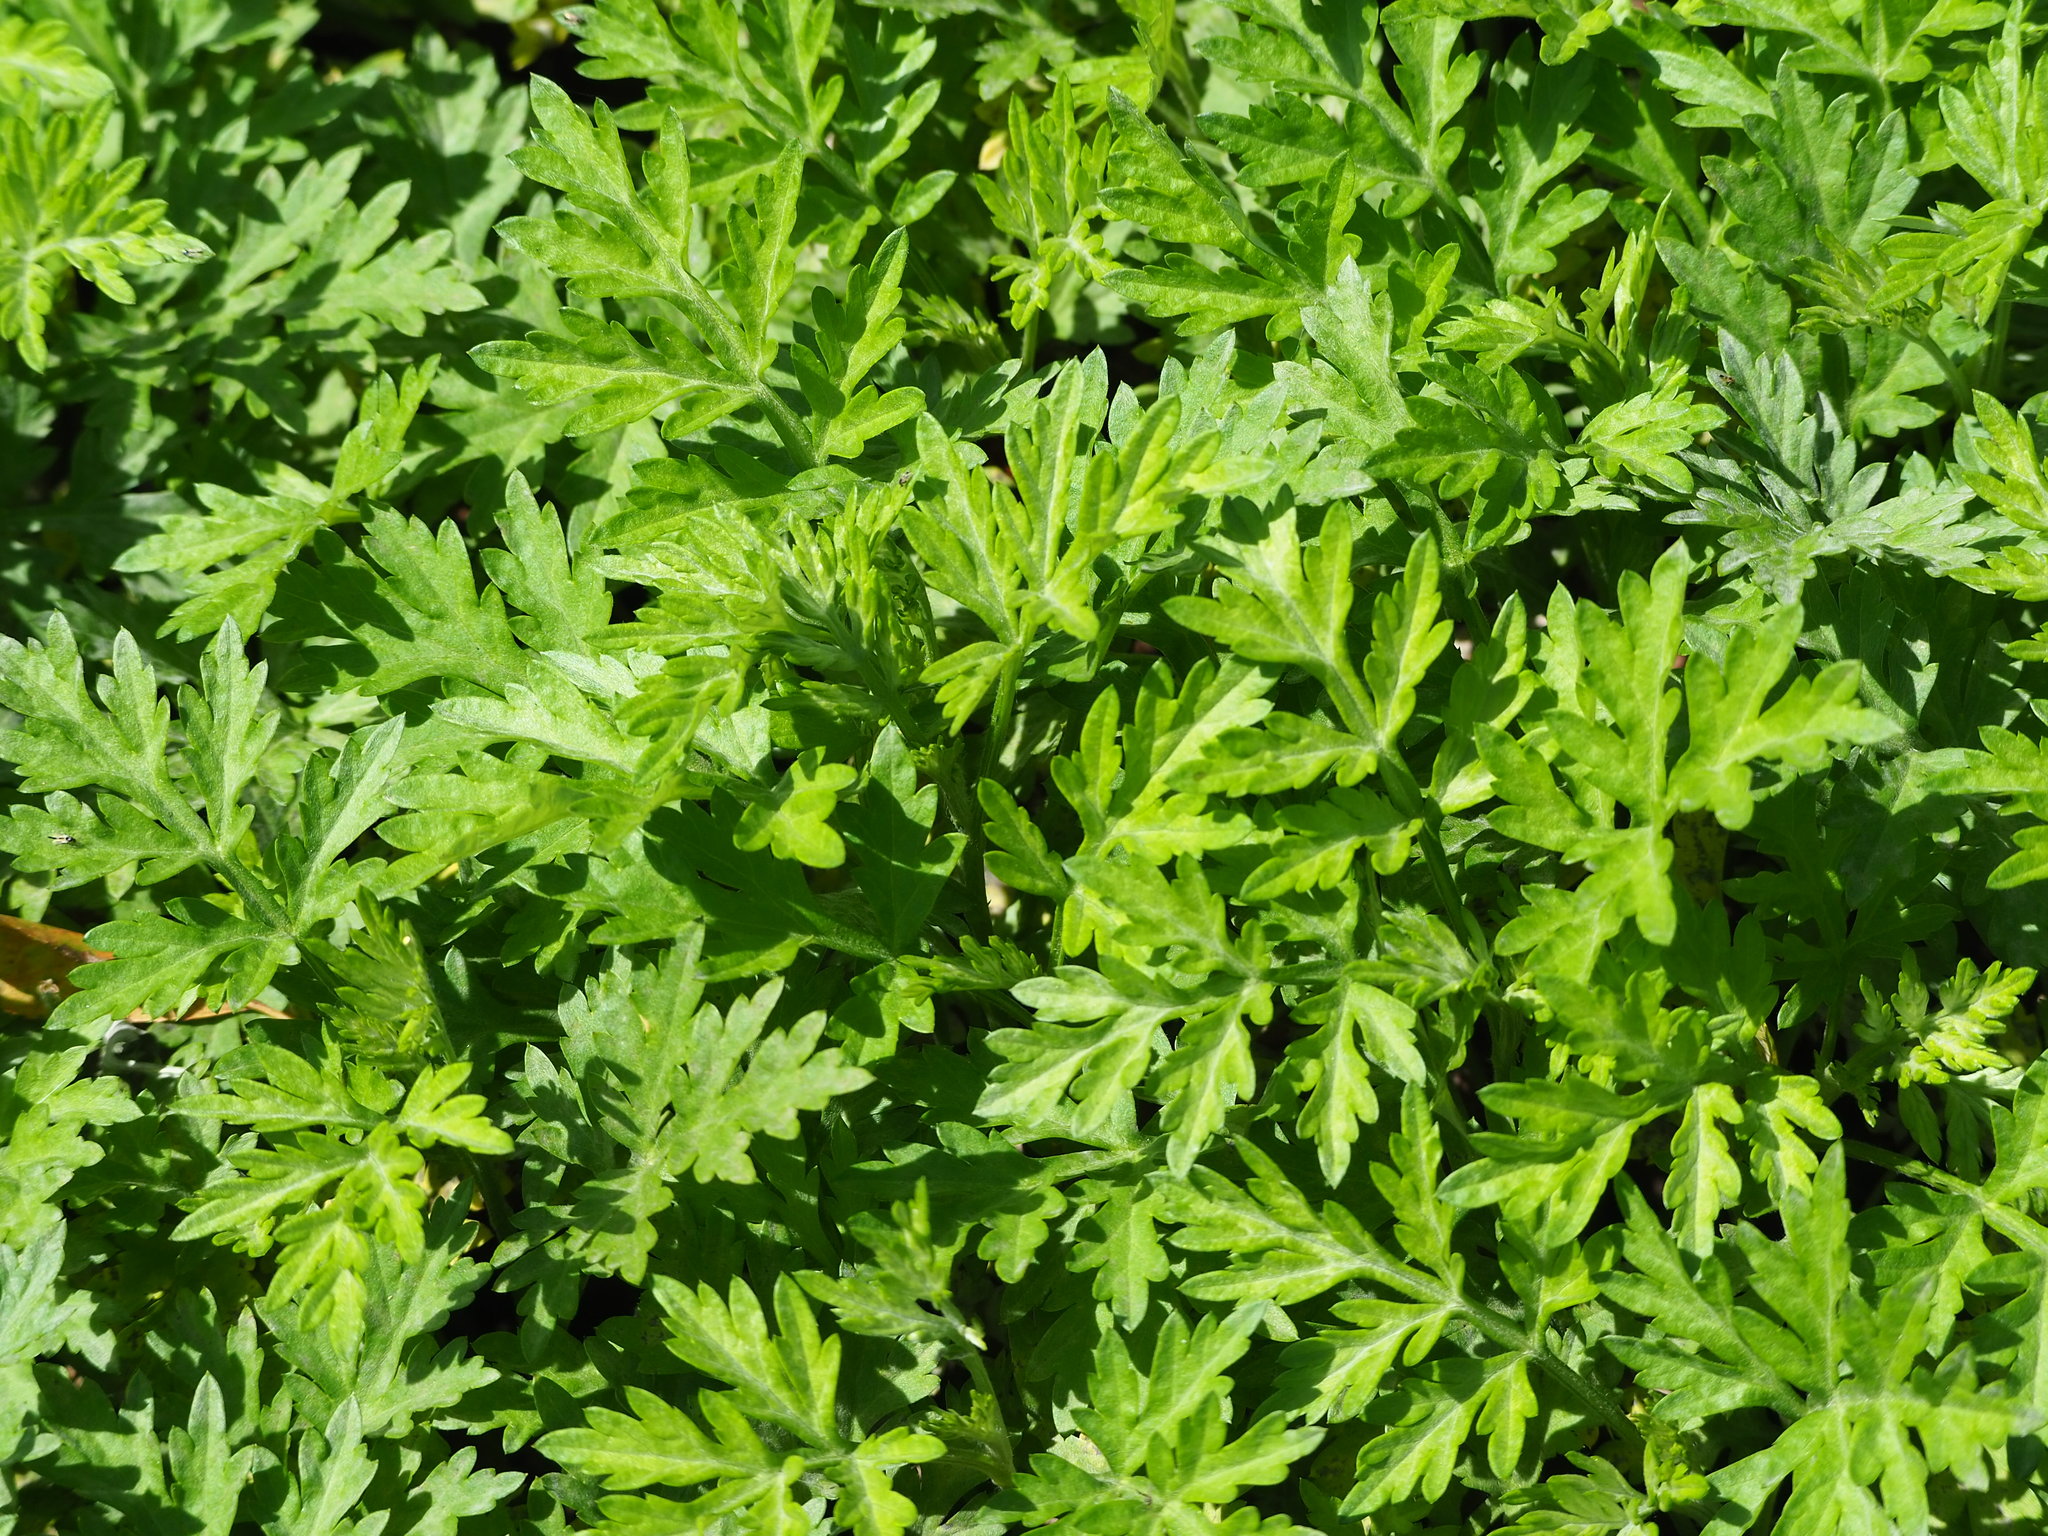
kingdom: Plantae
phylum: Tracheophyta
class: Magnoliopsida
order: Asterales
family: Asteraceae
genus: Artemisia
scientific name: Artemisia indica
